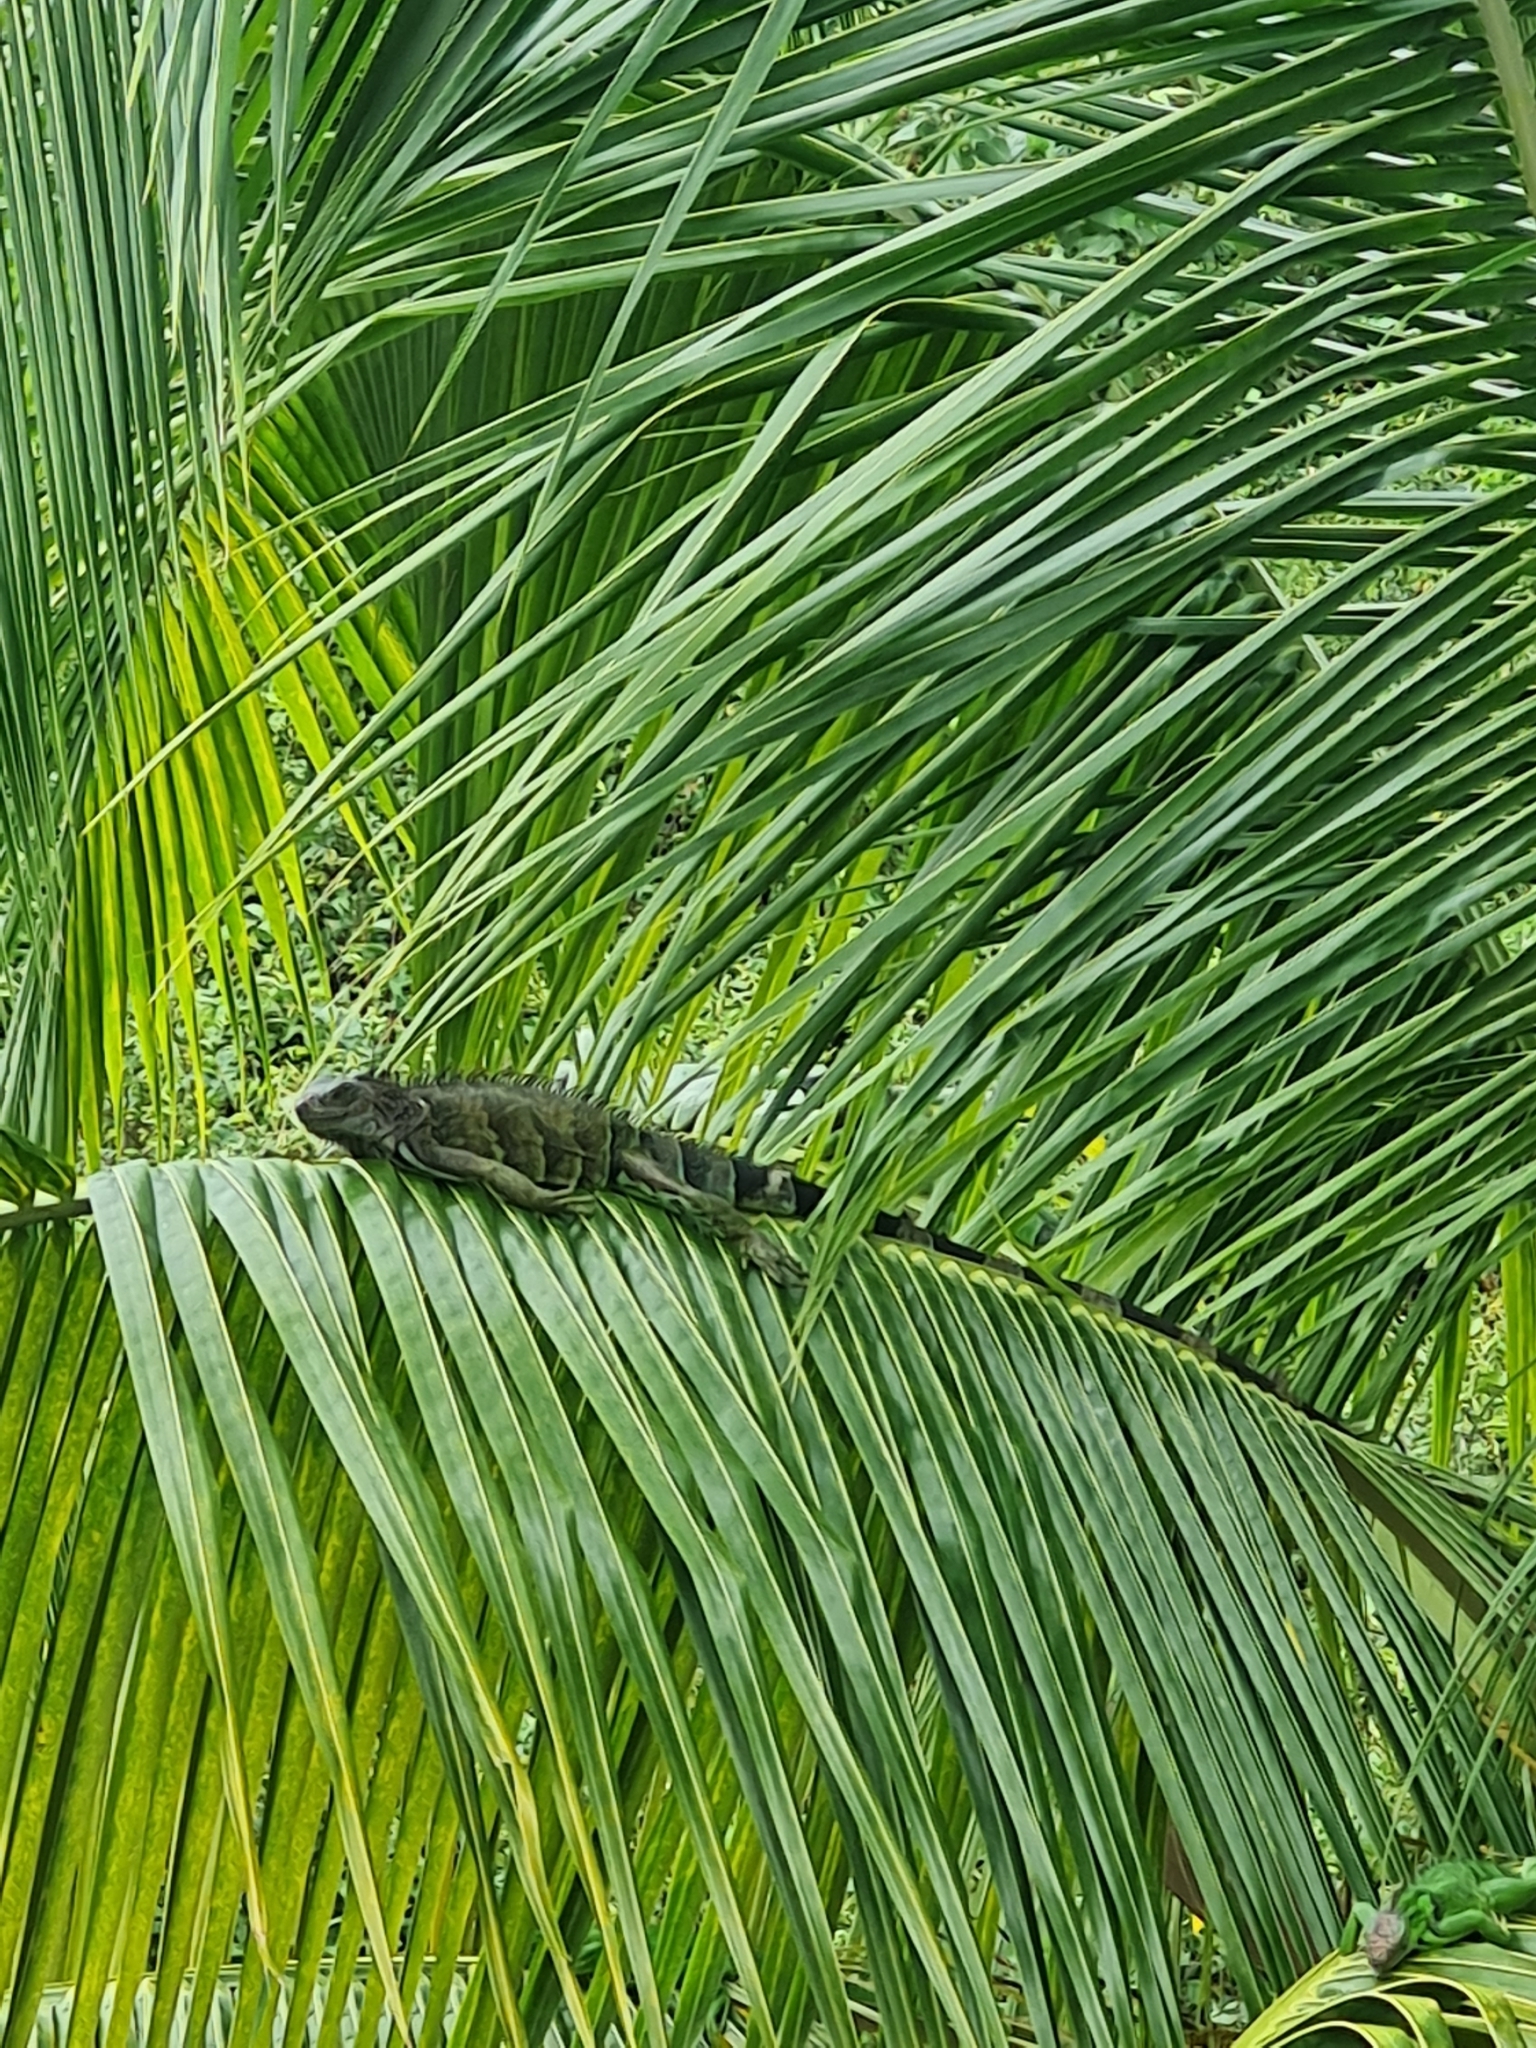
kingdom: Animalia
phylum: Chordata
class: Squamata
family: Iguanidae
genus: Iguana
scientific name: Iguana iguana
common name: Green iguana
